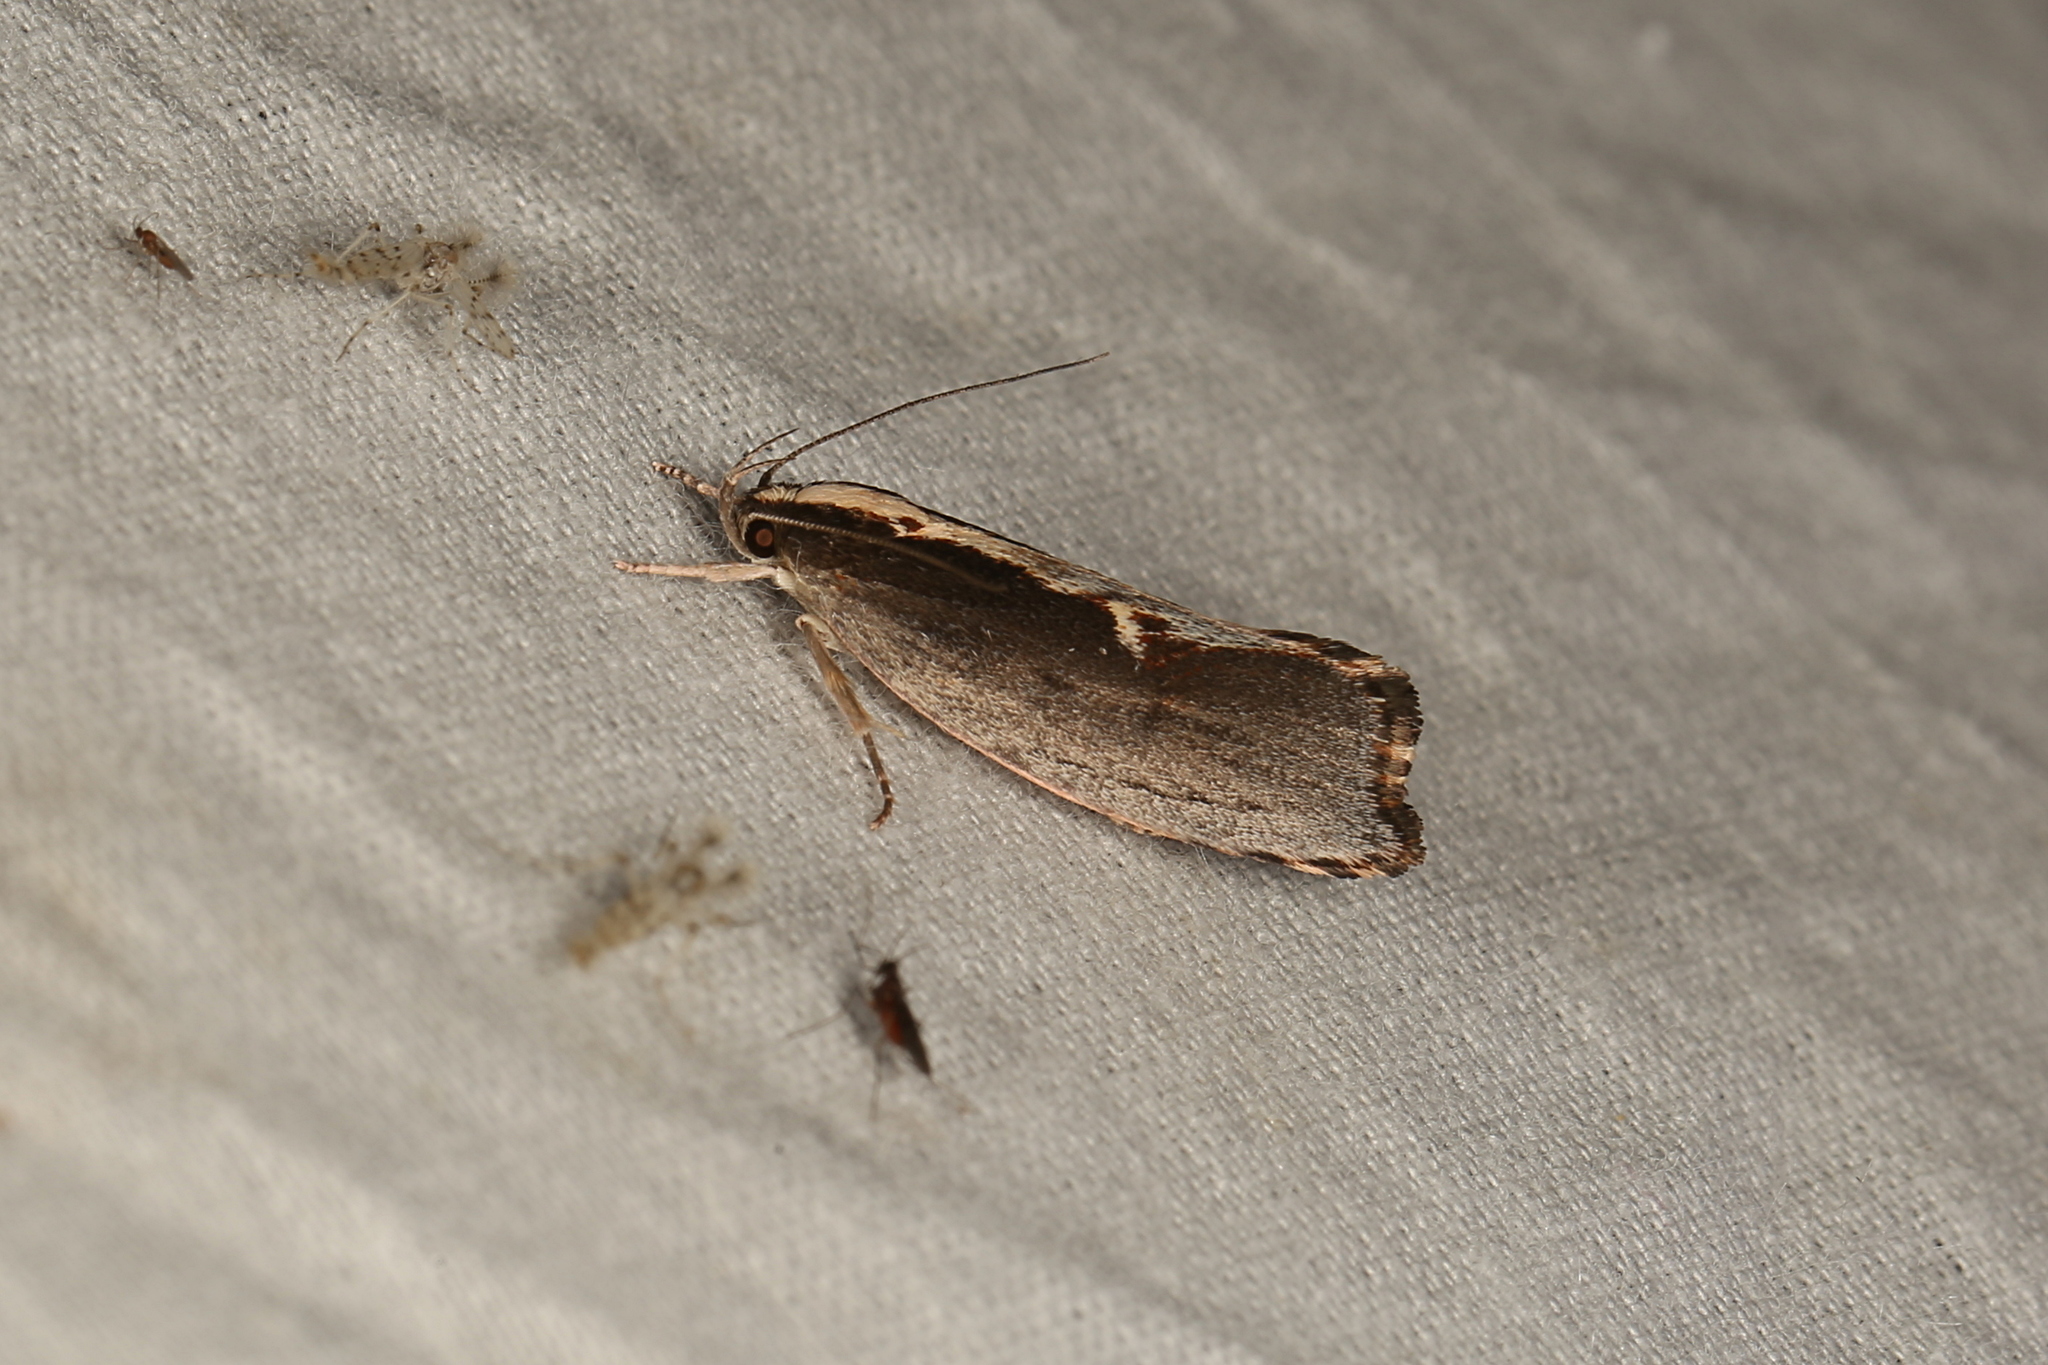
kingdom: Animalia
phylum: Arthropoda
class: Insecta
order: Lepidoptera
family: Oecophoridae
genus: Archaereta
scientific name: Archaereta dorsivittella
